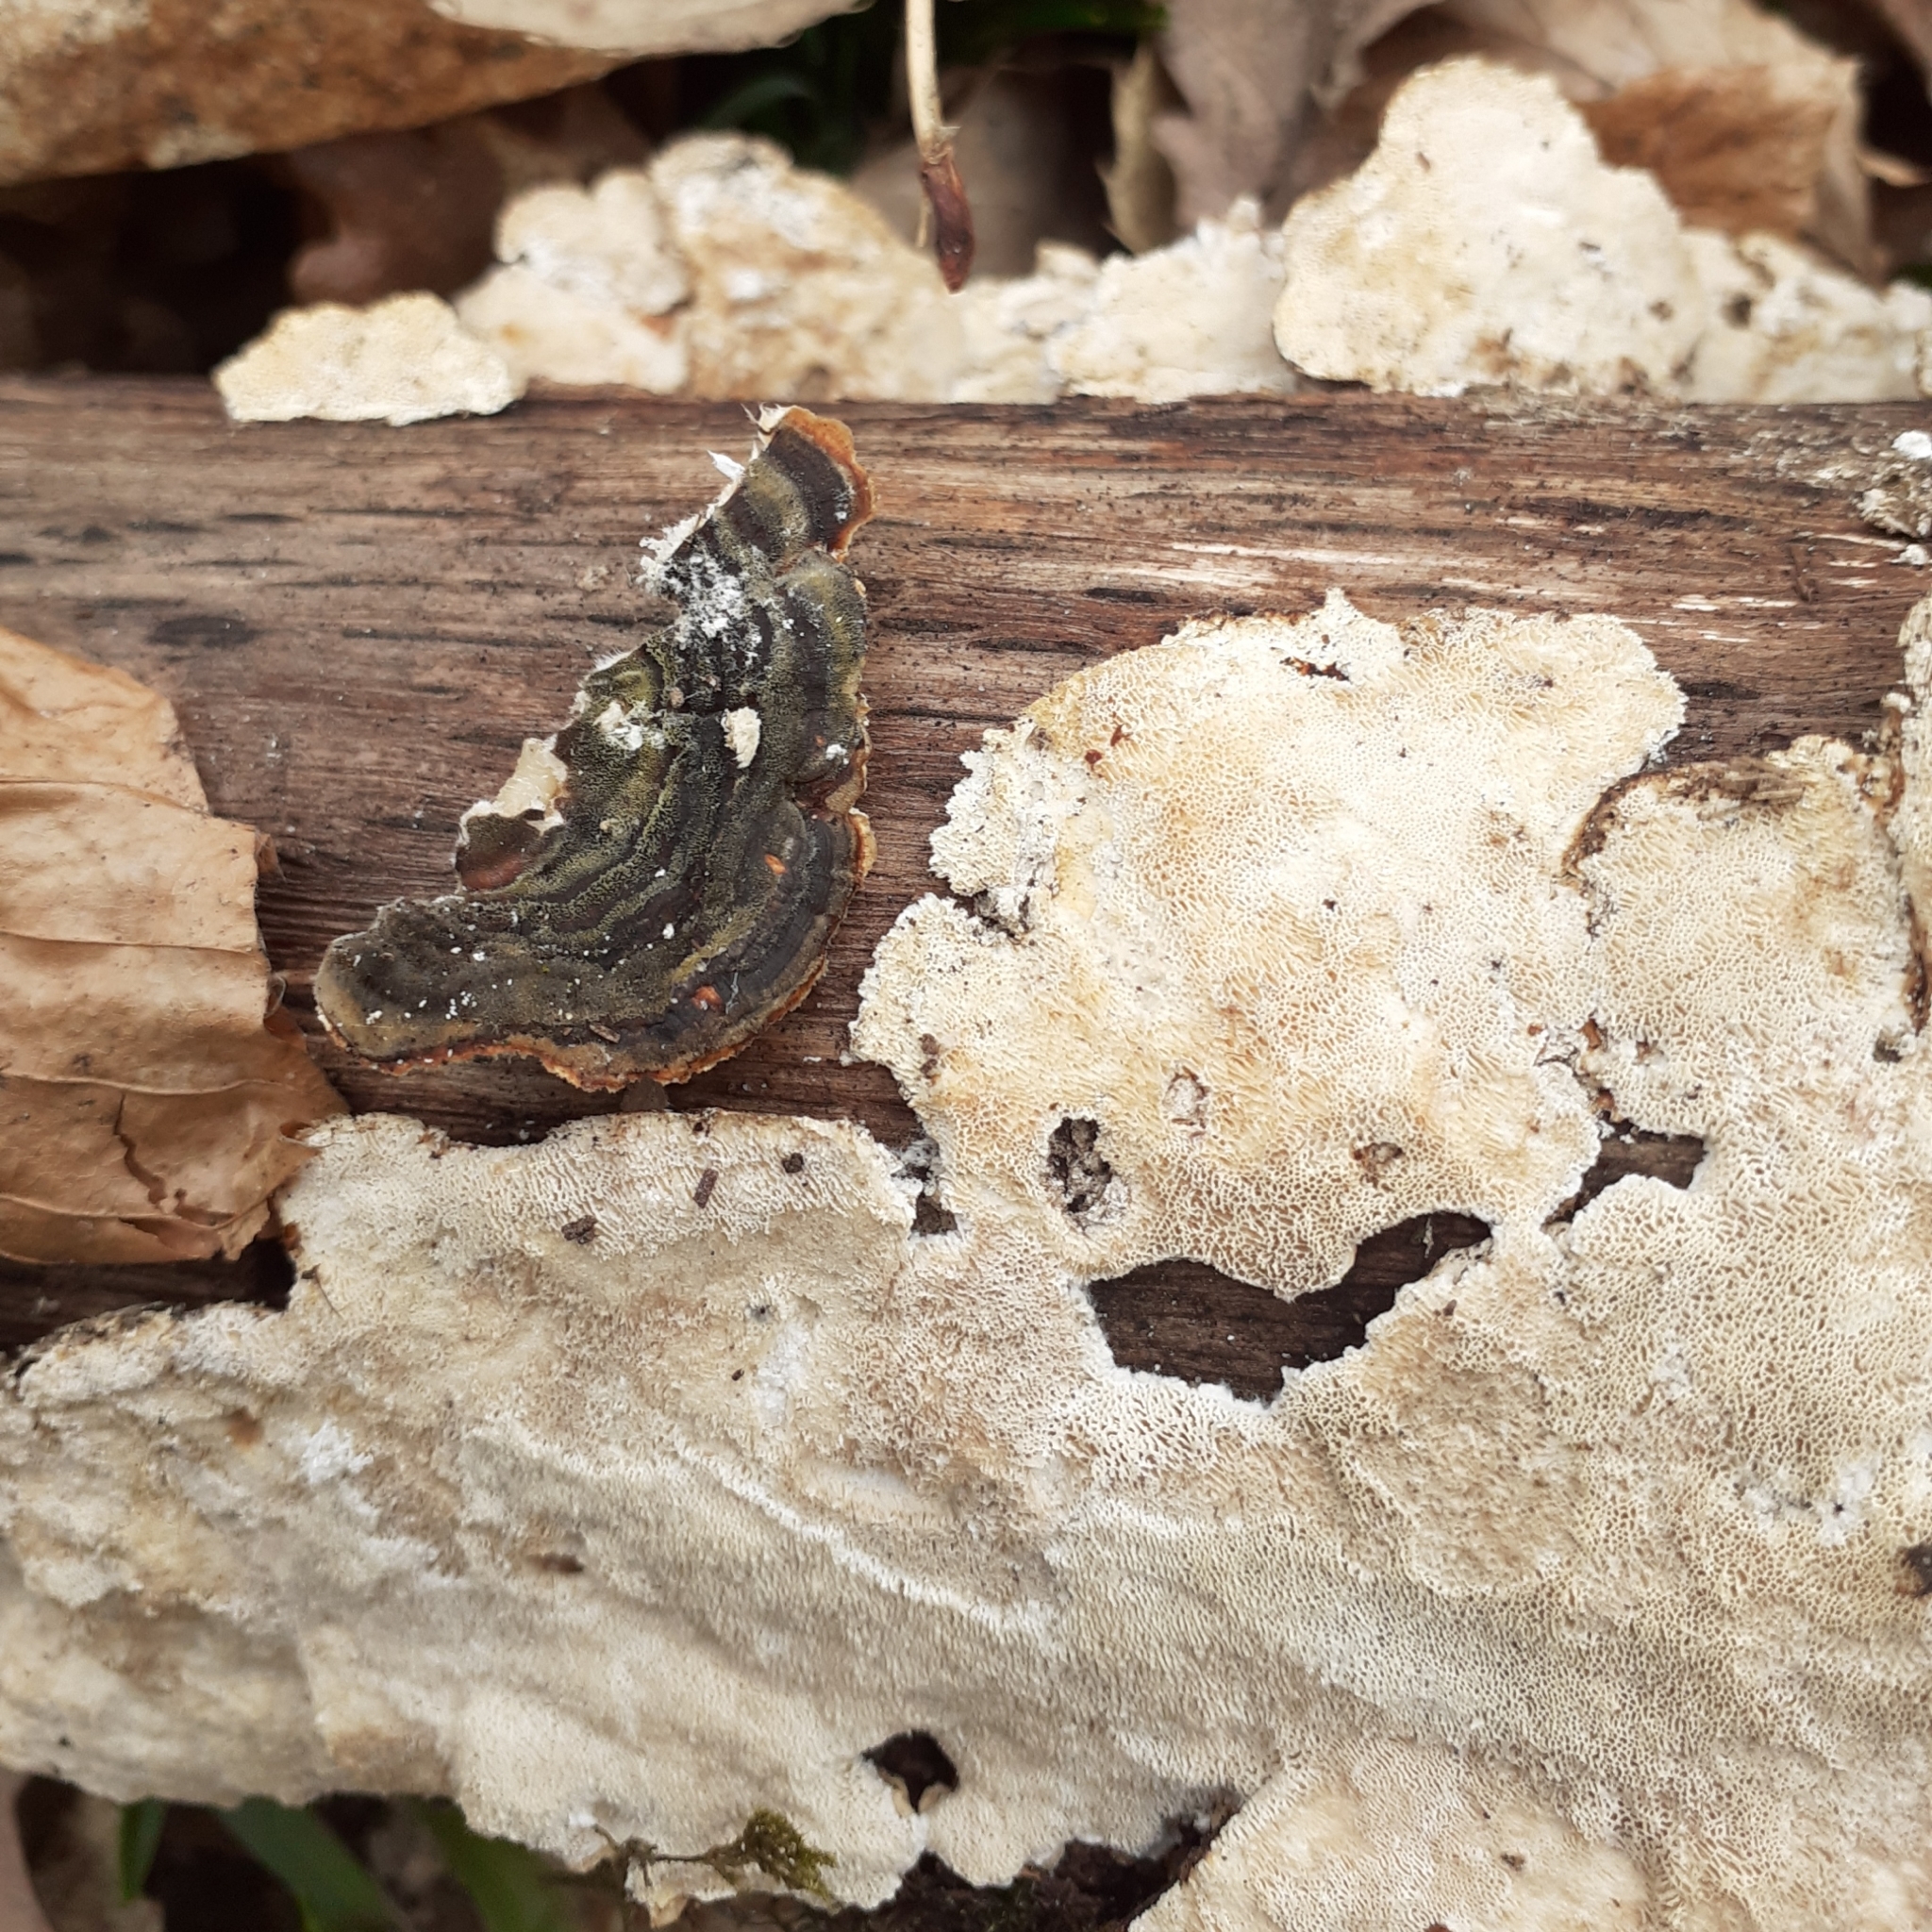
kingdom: Fungi
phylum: Basidiomycota
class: Agaricomycetes
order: Polyporales
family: Polyporaceae
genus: Trametes
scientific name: Trametes versicolor
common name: Turkeytail
